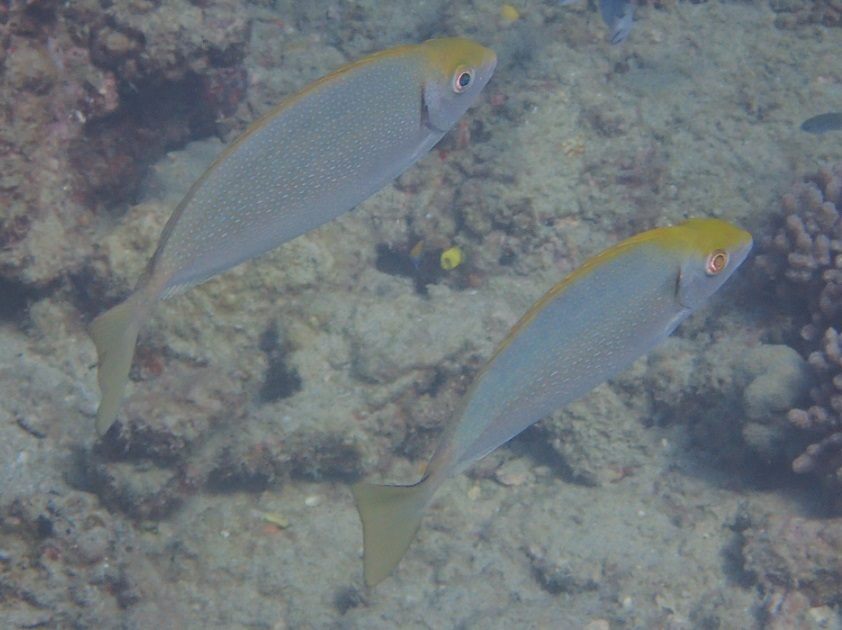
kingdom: Animalia
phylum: Chordata
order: Perciformes
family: Siganidae
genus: Siganus
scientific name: Siganus fuscescens
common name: Dusky rabbitfish
